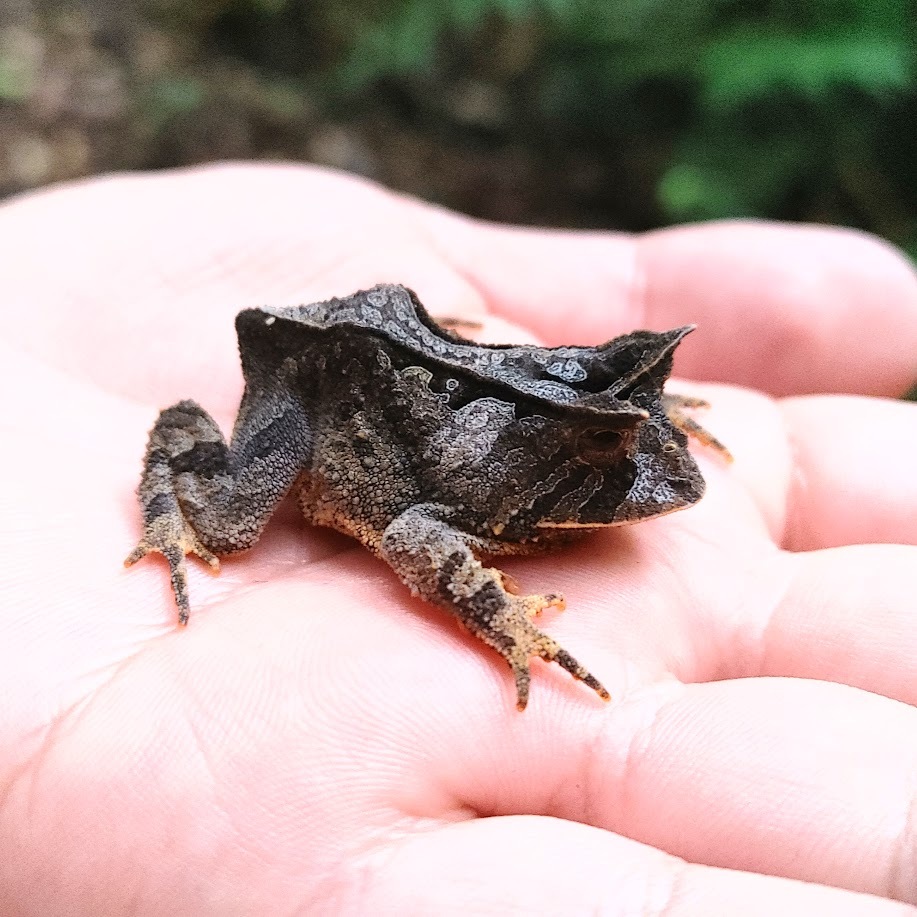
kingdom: Animalia
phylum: Chordata
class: Amphibia
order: Anura
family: Odontophrynidae
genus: Proceratophrys
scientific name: Proceratophrys boiei
